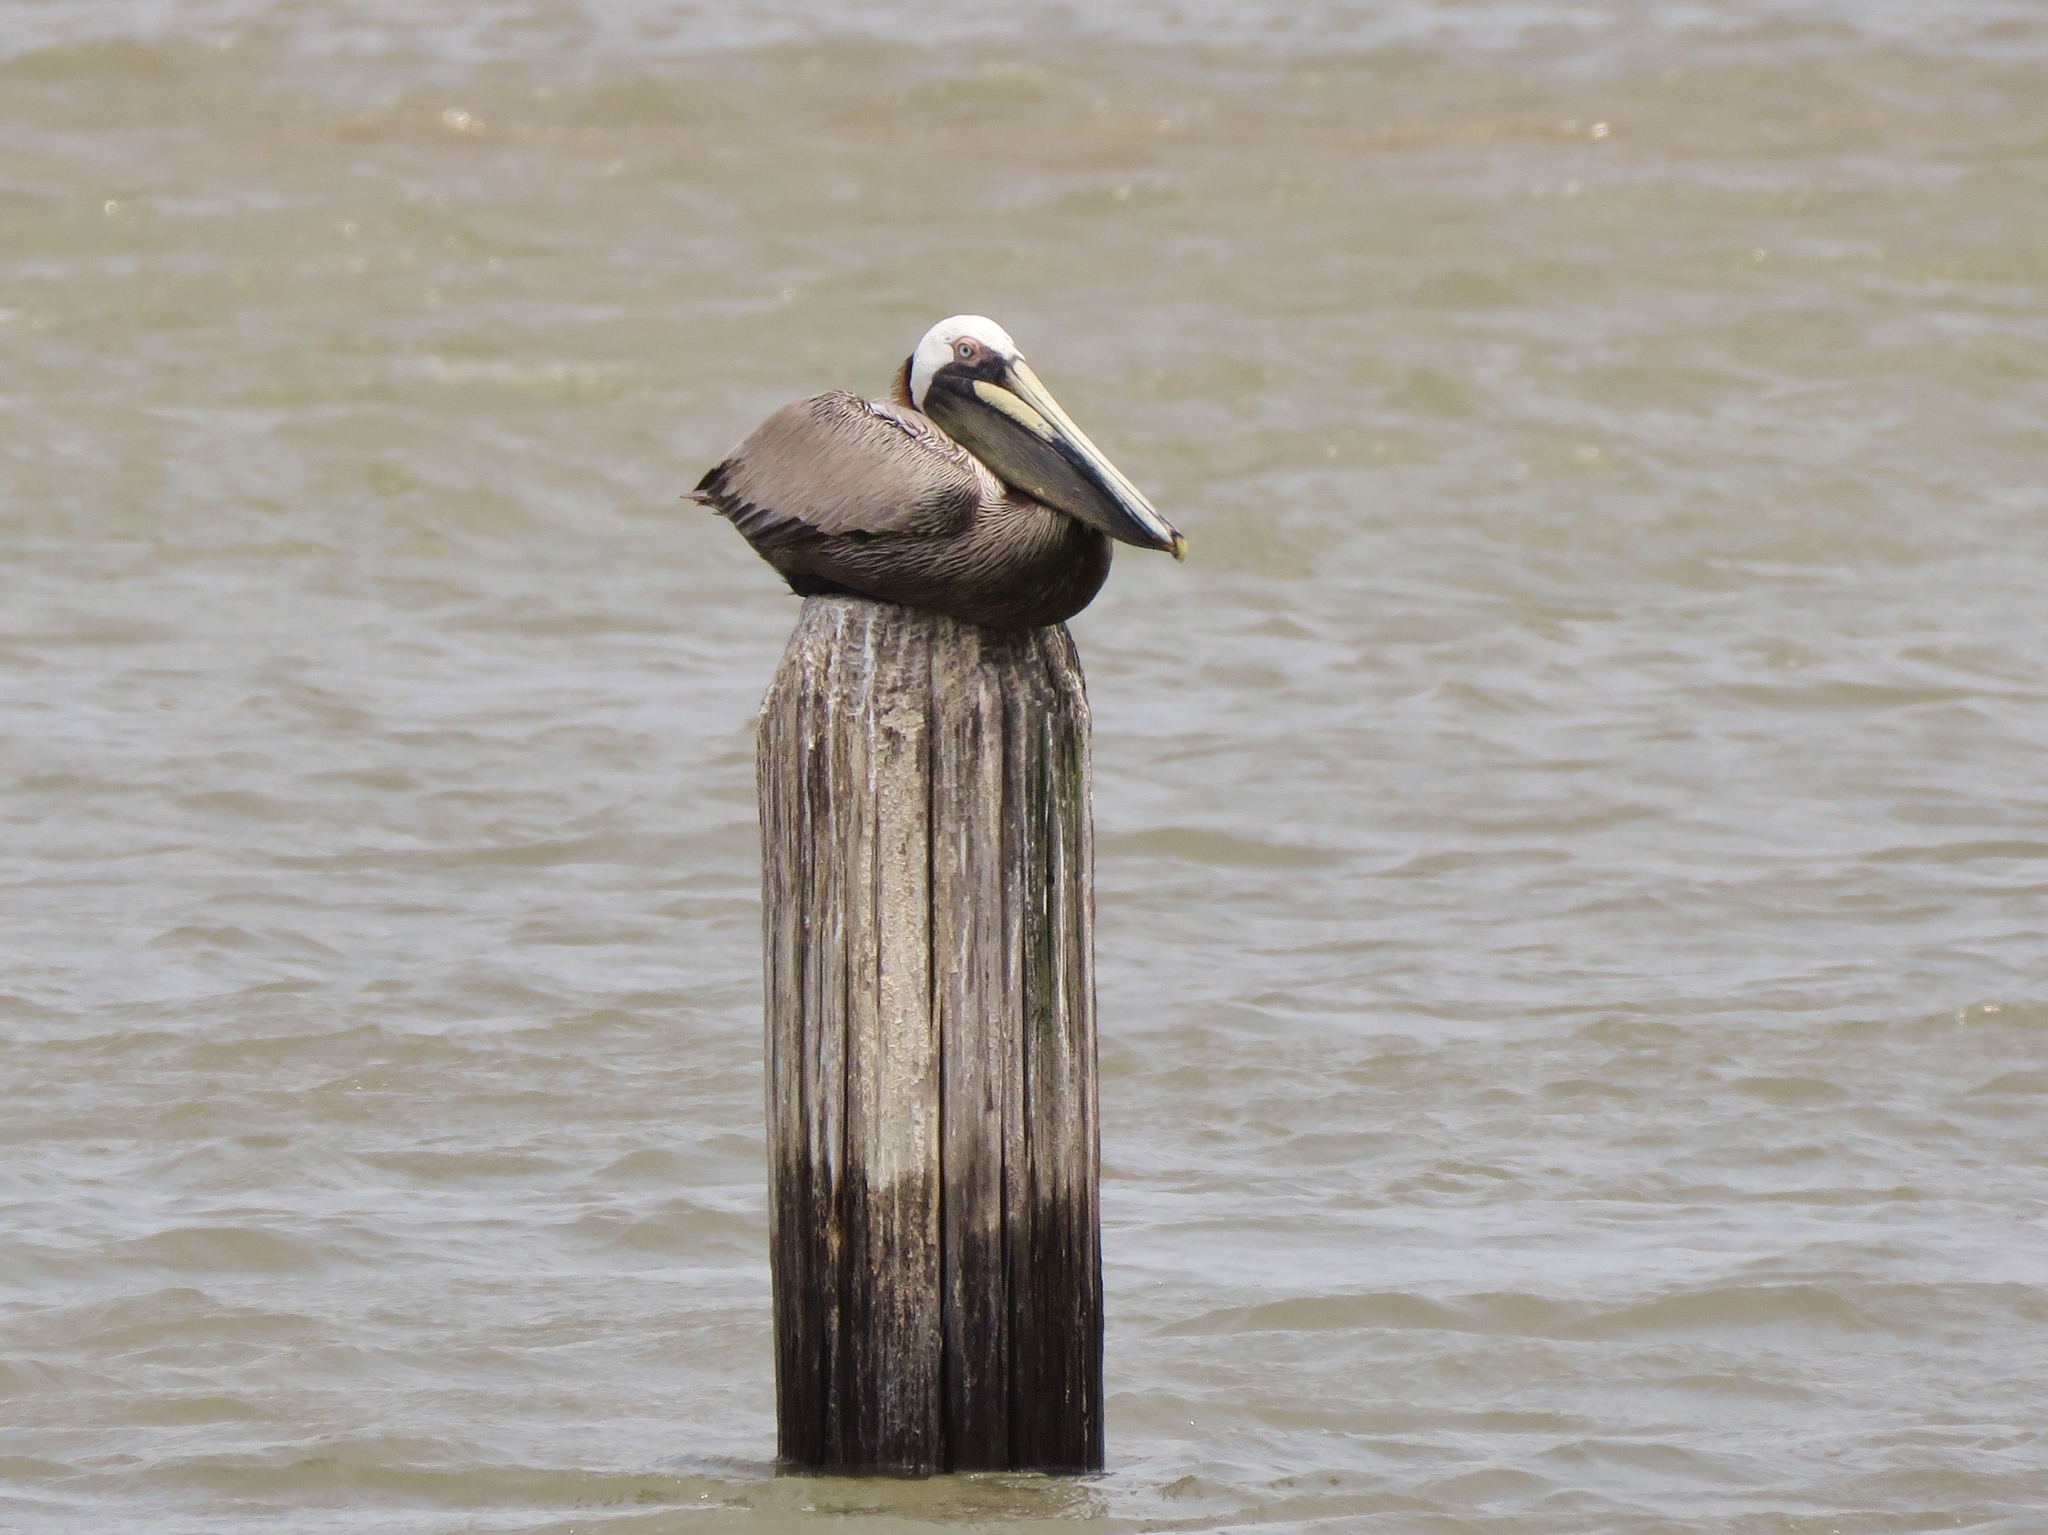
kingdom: Animalia
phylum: Chordata
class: Aves
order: Pelecaniformes
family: Pelecanidae
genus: Pelecanus
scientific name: Pelecanus occidentalis
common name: Brown pelican
